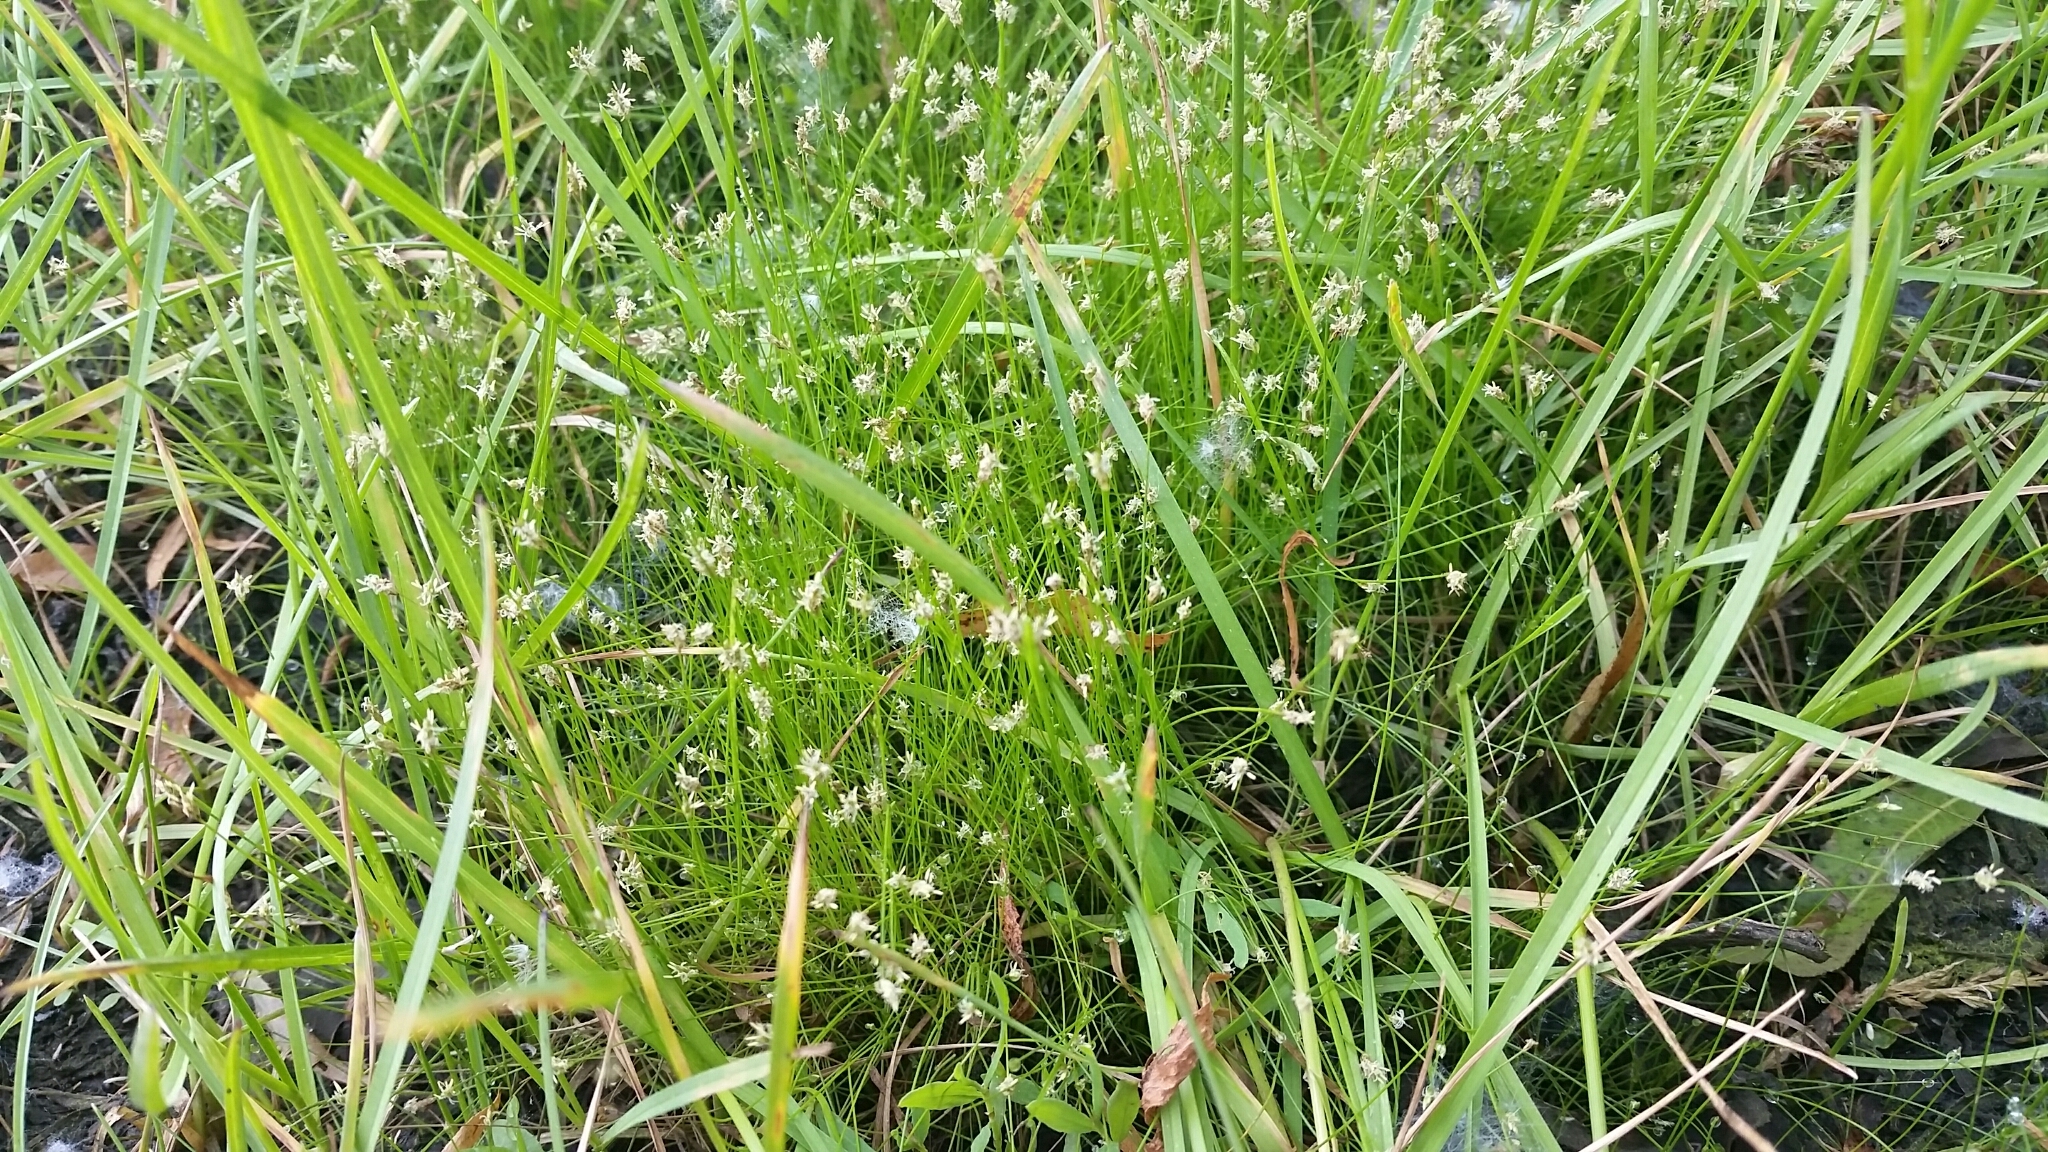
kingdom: Plantae
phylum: Tracheophyta
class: Liliopsida
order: Poales
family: Cyperaceae
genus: Eleocharis
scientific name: Eleocharis acicularis
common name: Needle spike-rush
